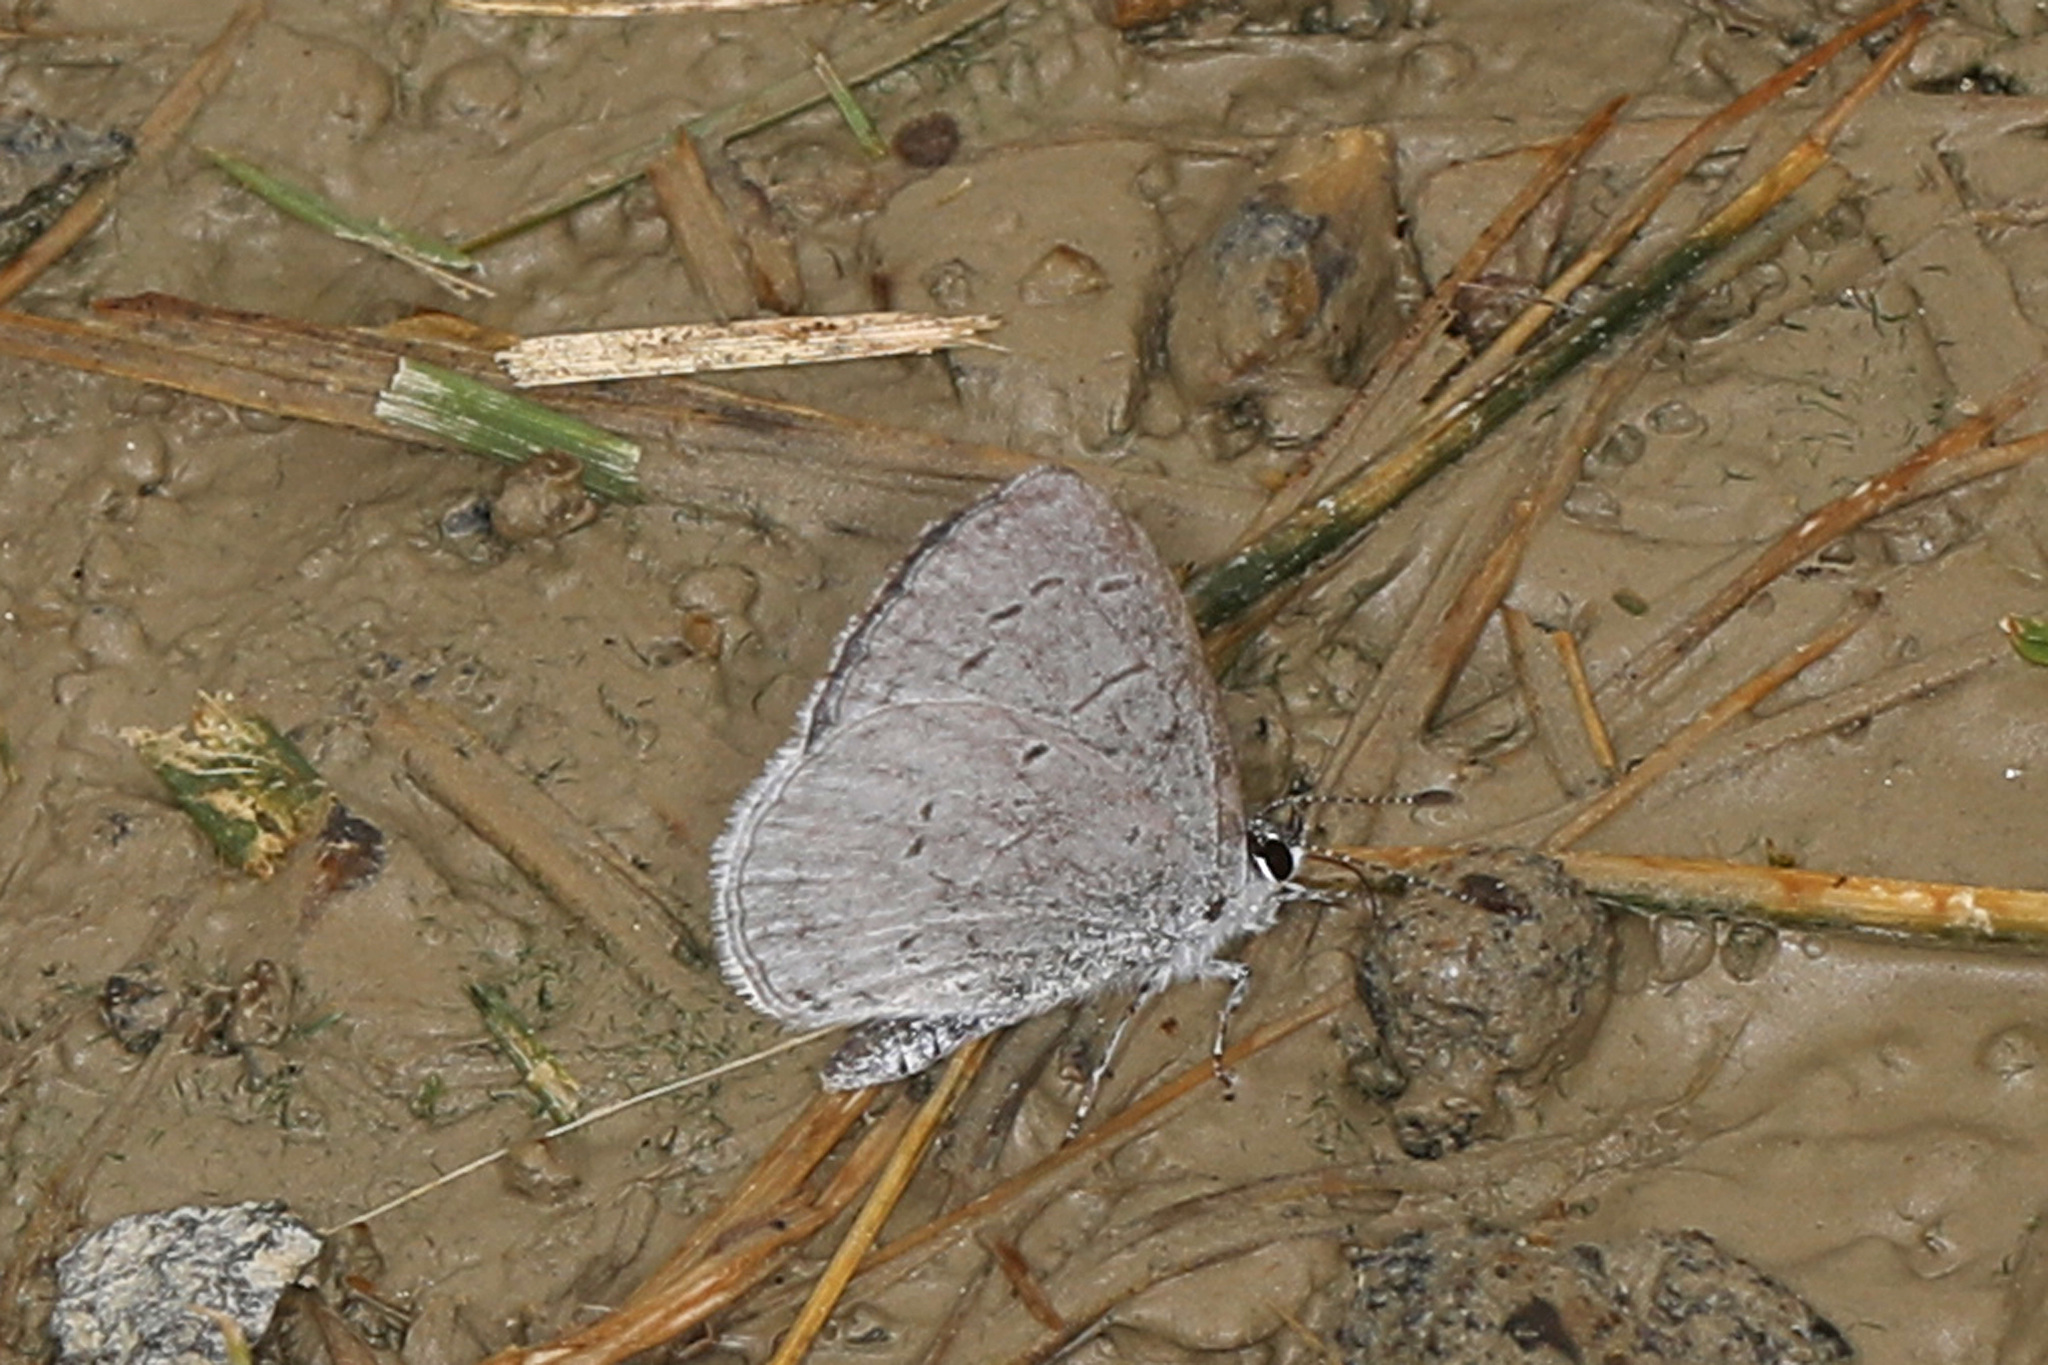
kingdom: Animalia
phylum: Arthropoda
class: Insecta
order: Lepidoptera
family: Lycaenidae
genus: Cyaniris
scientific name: Cyaniris neglecta
